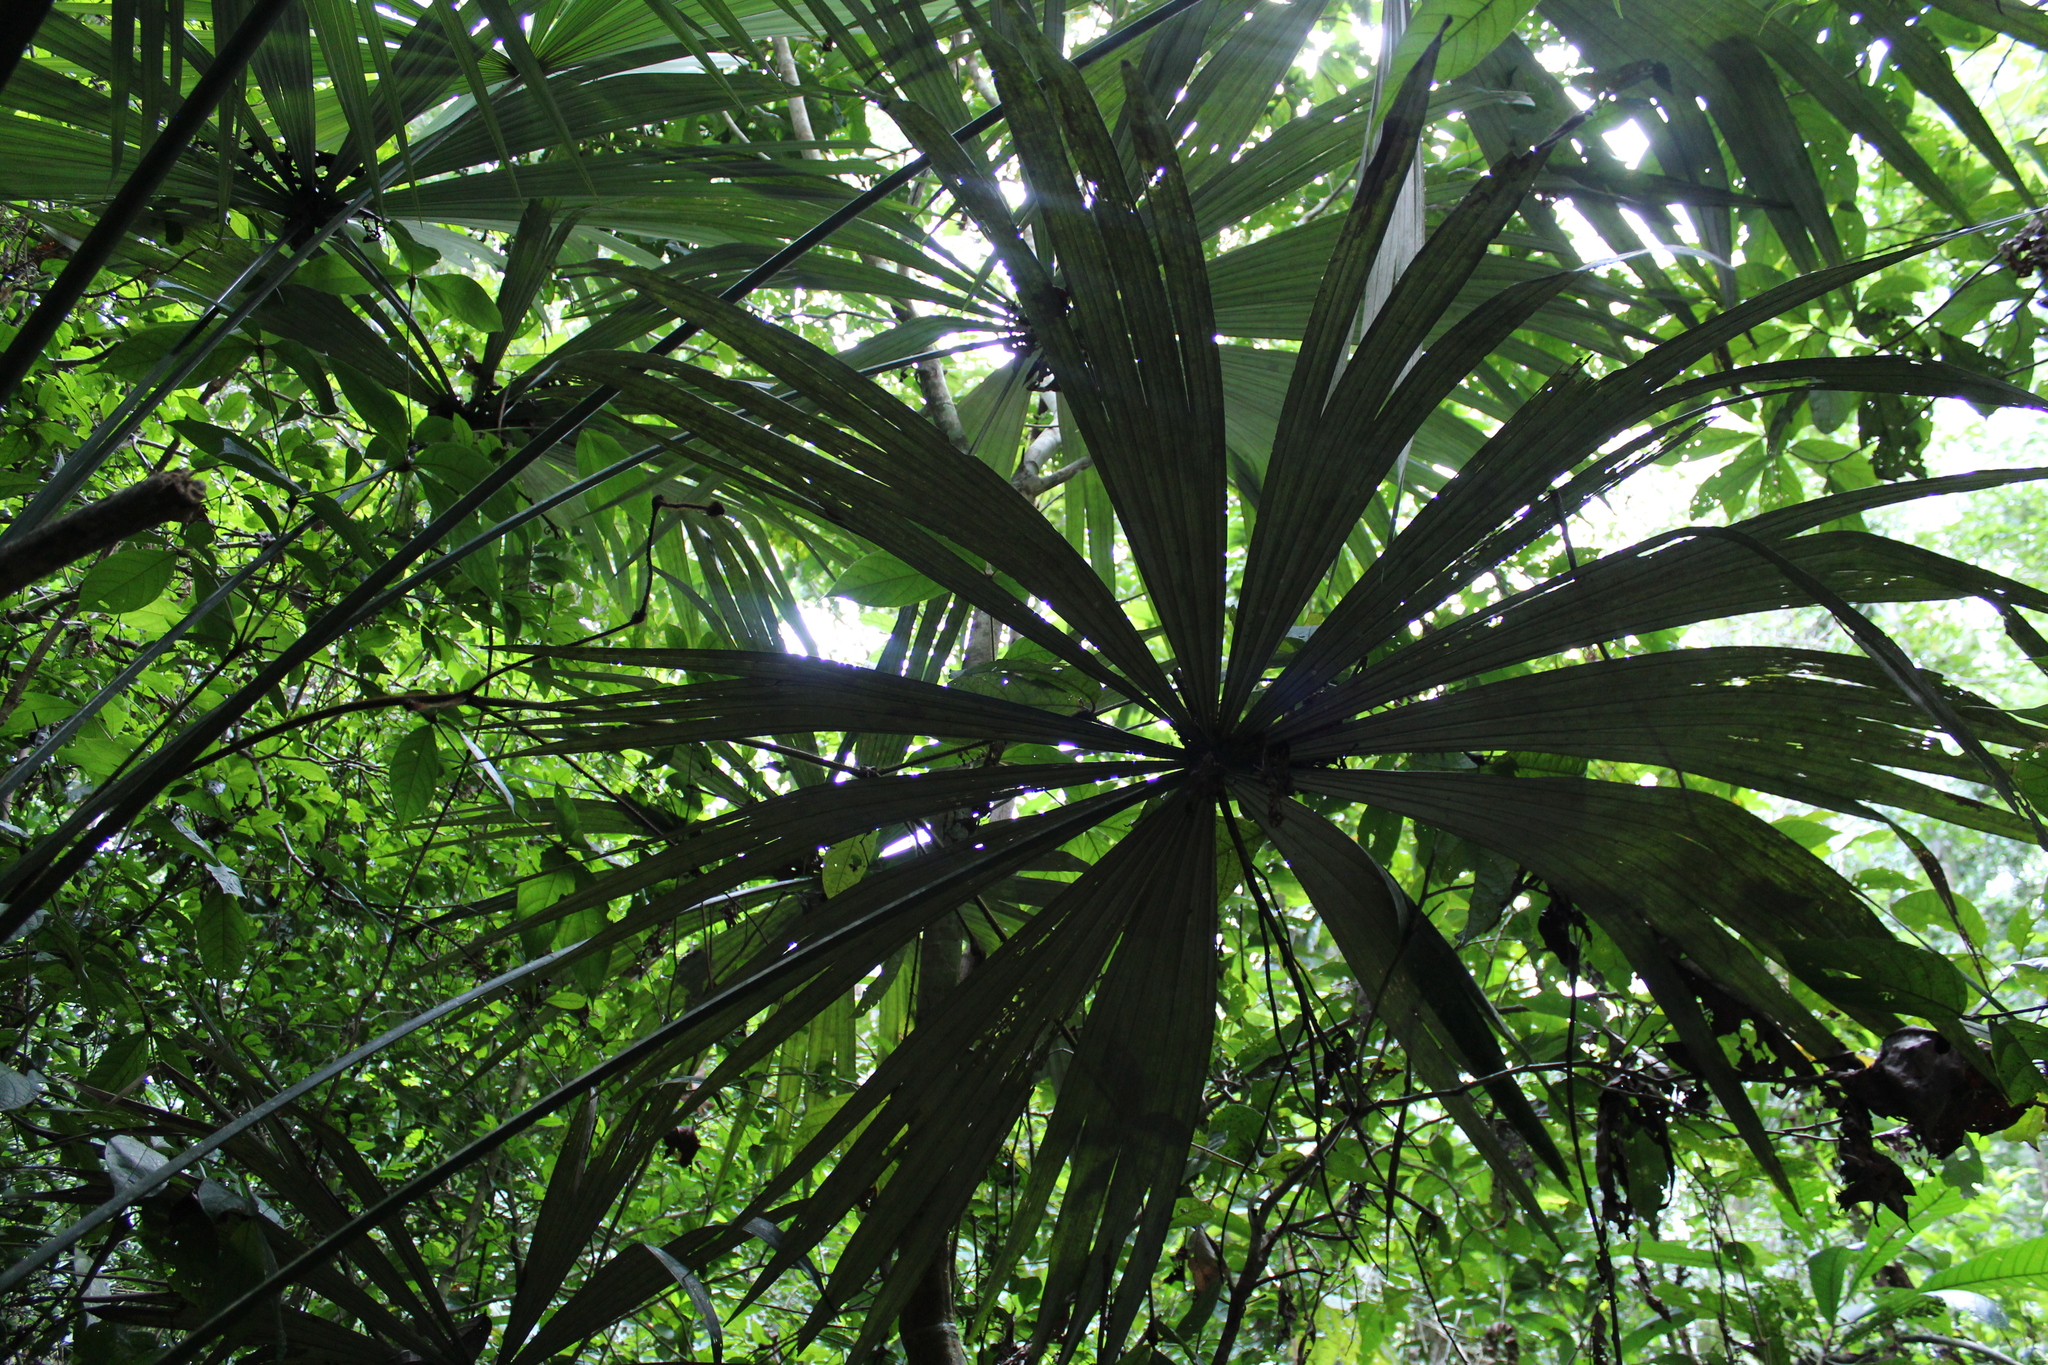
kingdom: Plantae
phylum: Tracheophyta
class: Liliopsida
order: Arecales
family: Arecaceae
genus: Chelyocarpus
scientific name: Chelyocarpus ulei
